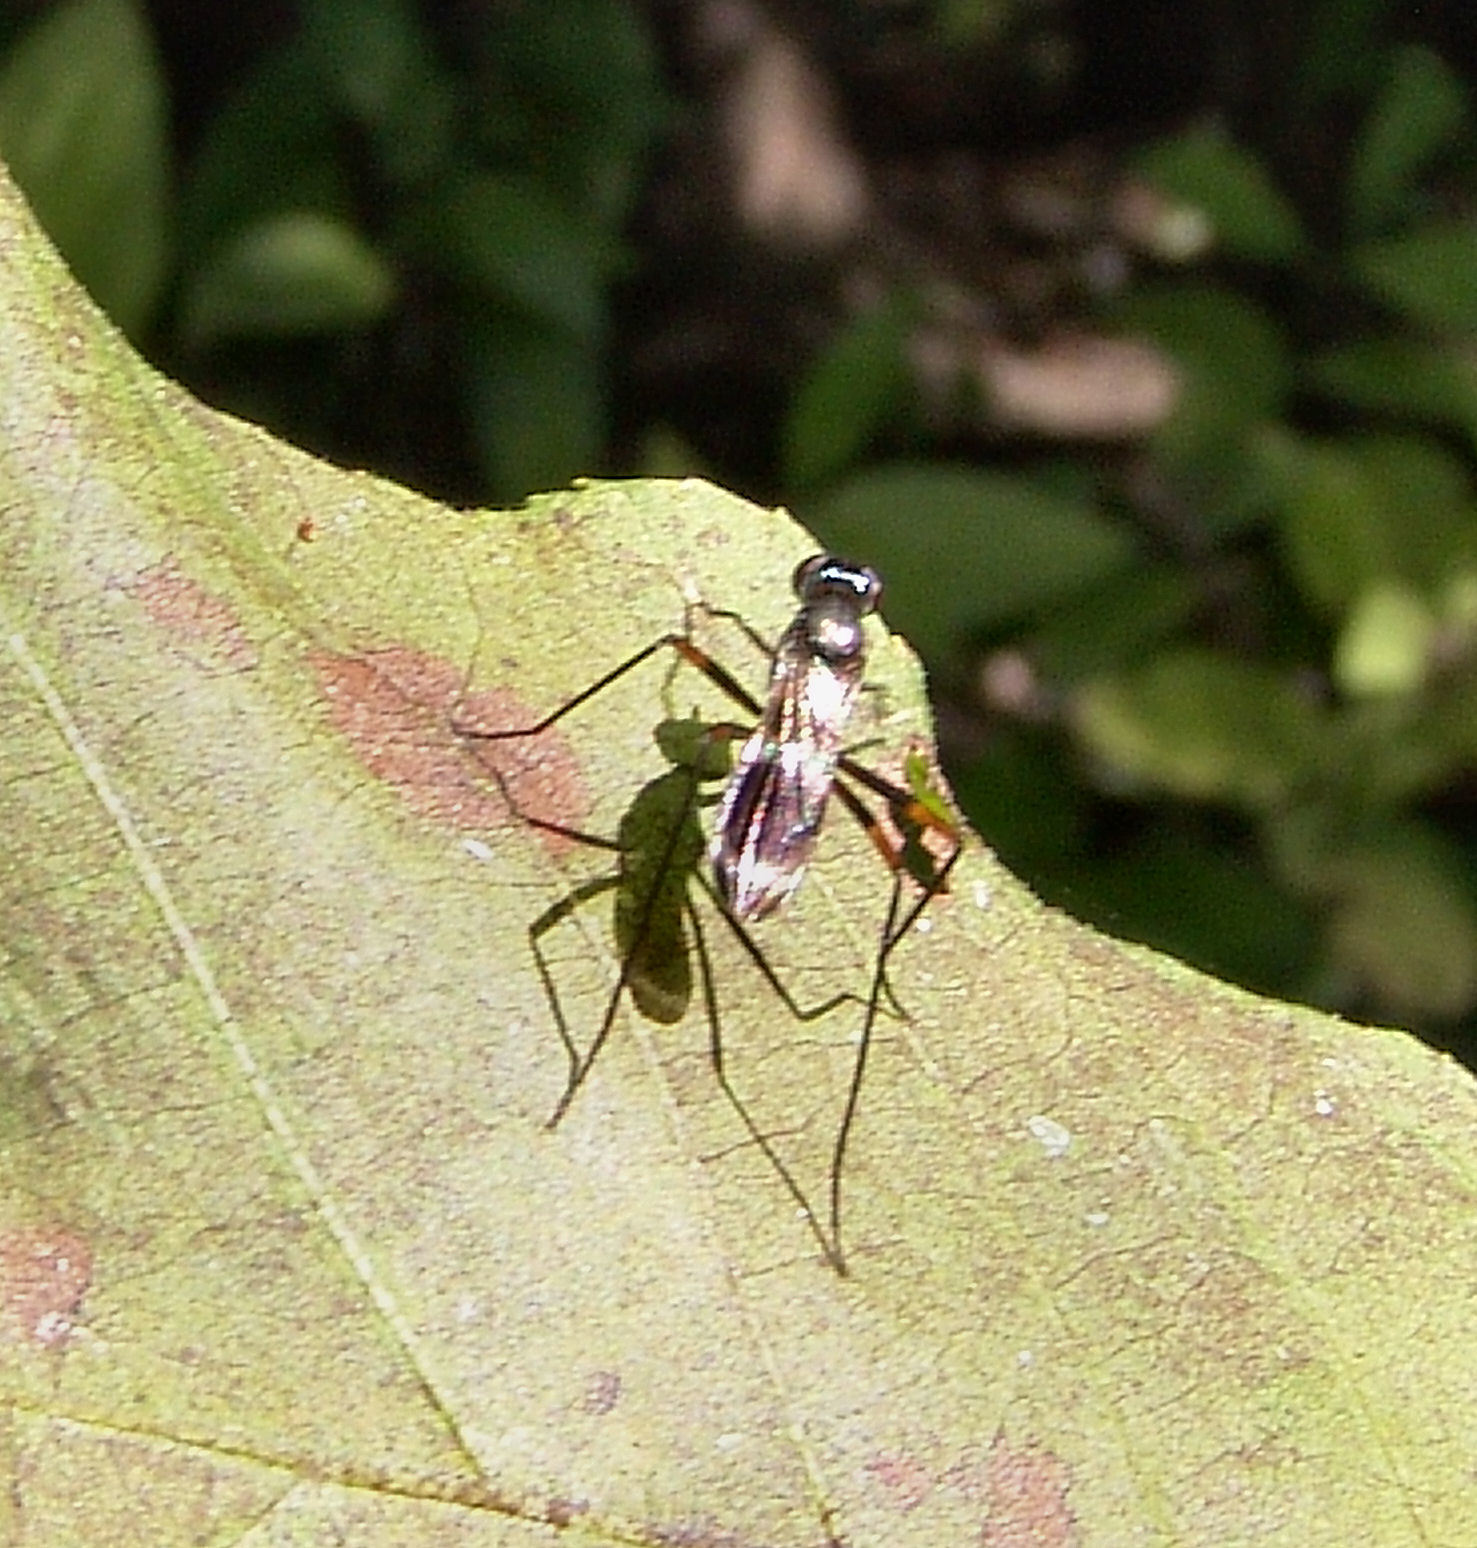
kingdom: Animalia
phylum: Arthropoda
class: Insecta
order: Diptera
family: Micropezidae
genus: Taeniaptera
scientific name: Taeniaptera trivittata
